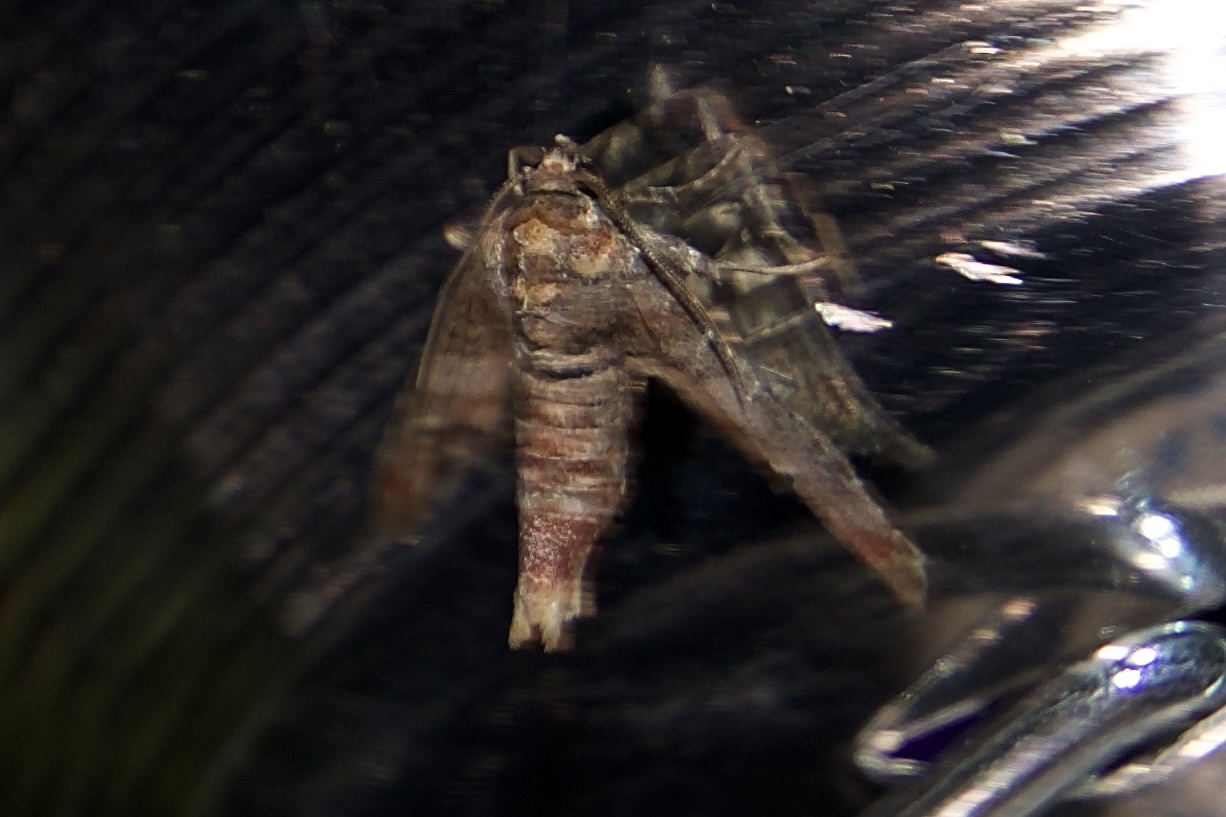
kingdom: Animalia
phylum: Arthropoda
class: Insecta
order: Lepidoptera
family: Euteliidae
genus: Marathyssa
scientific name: Marathyssa inficita
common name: Dark marathyssa moth
